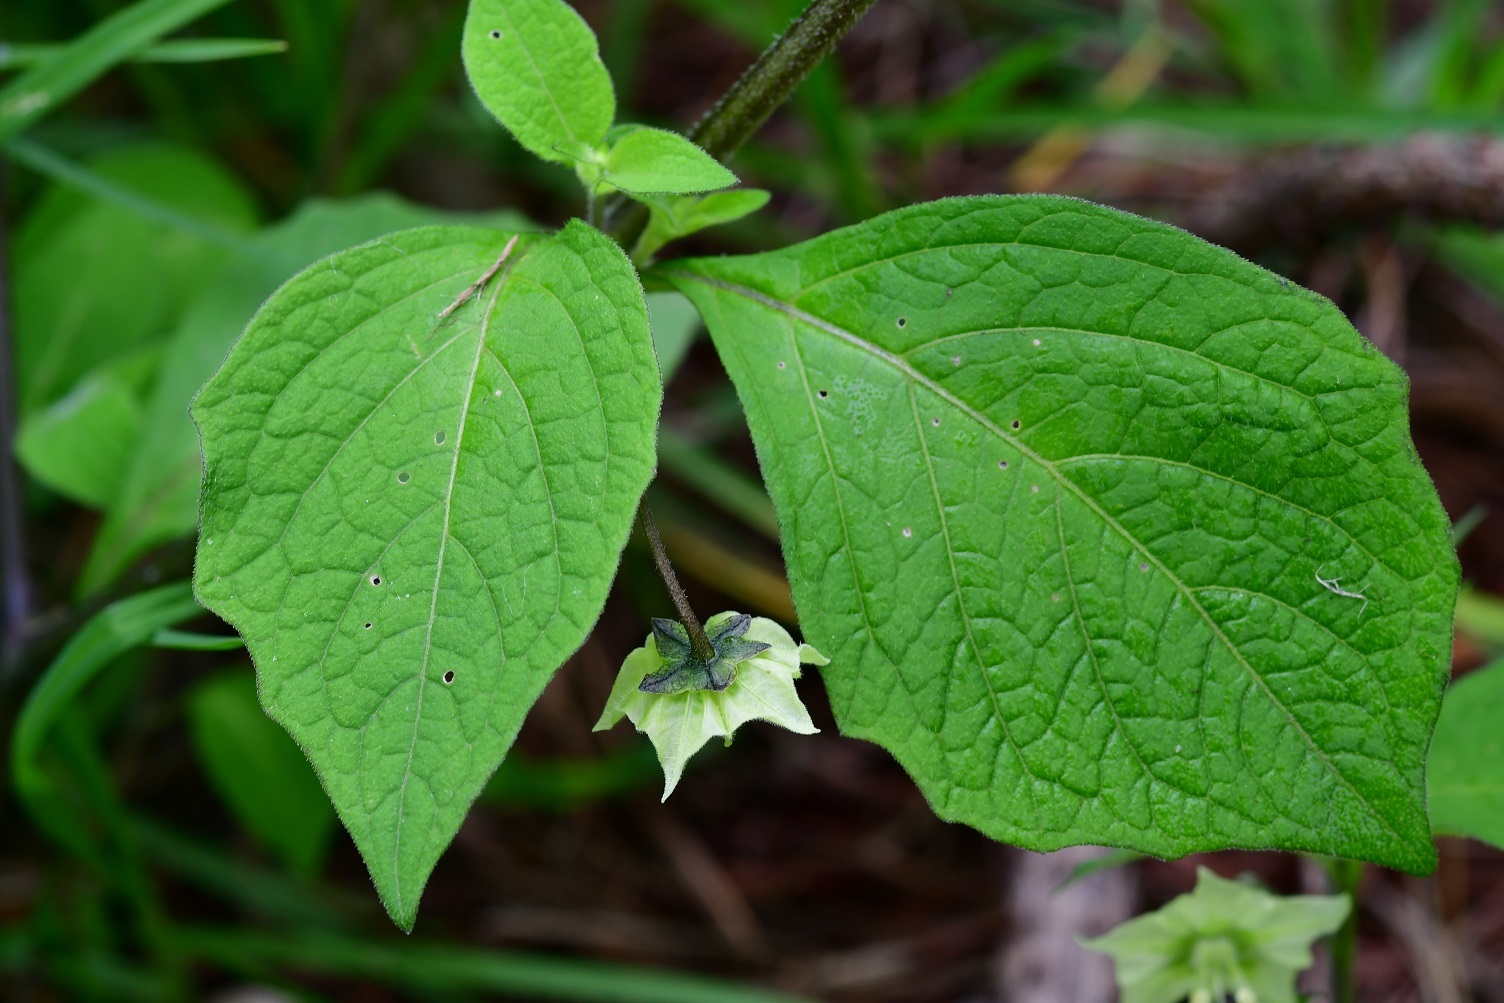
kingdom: Plantae
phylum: Tracheophyta
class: Magnoliopsida
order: Solanales
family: Solanaceae
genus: Jaltomata
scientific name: Jaltomata procumbens
